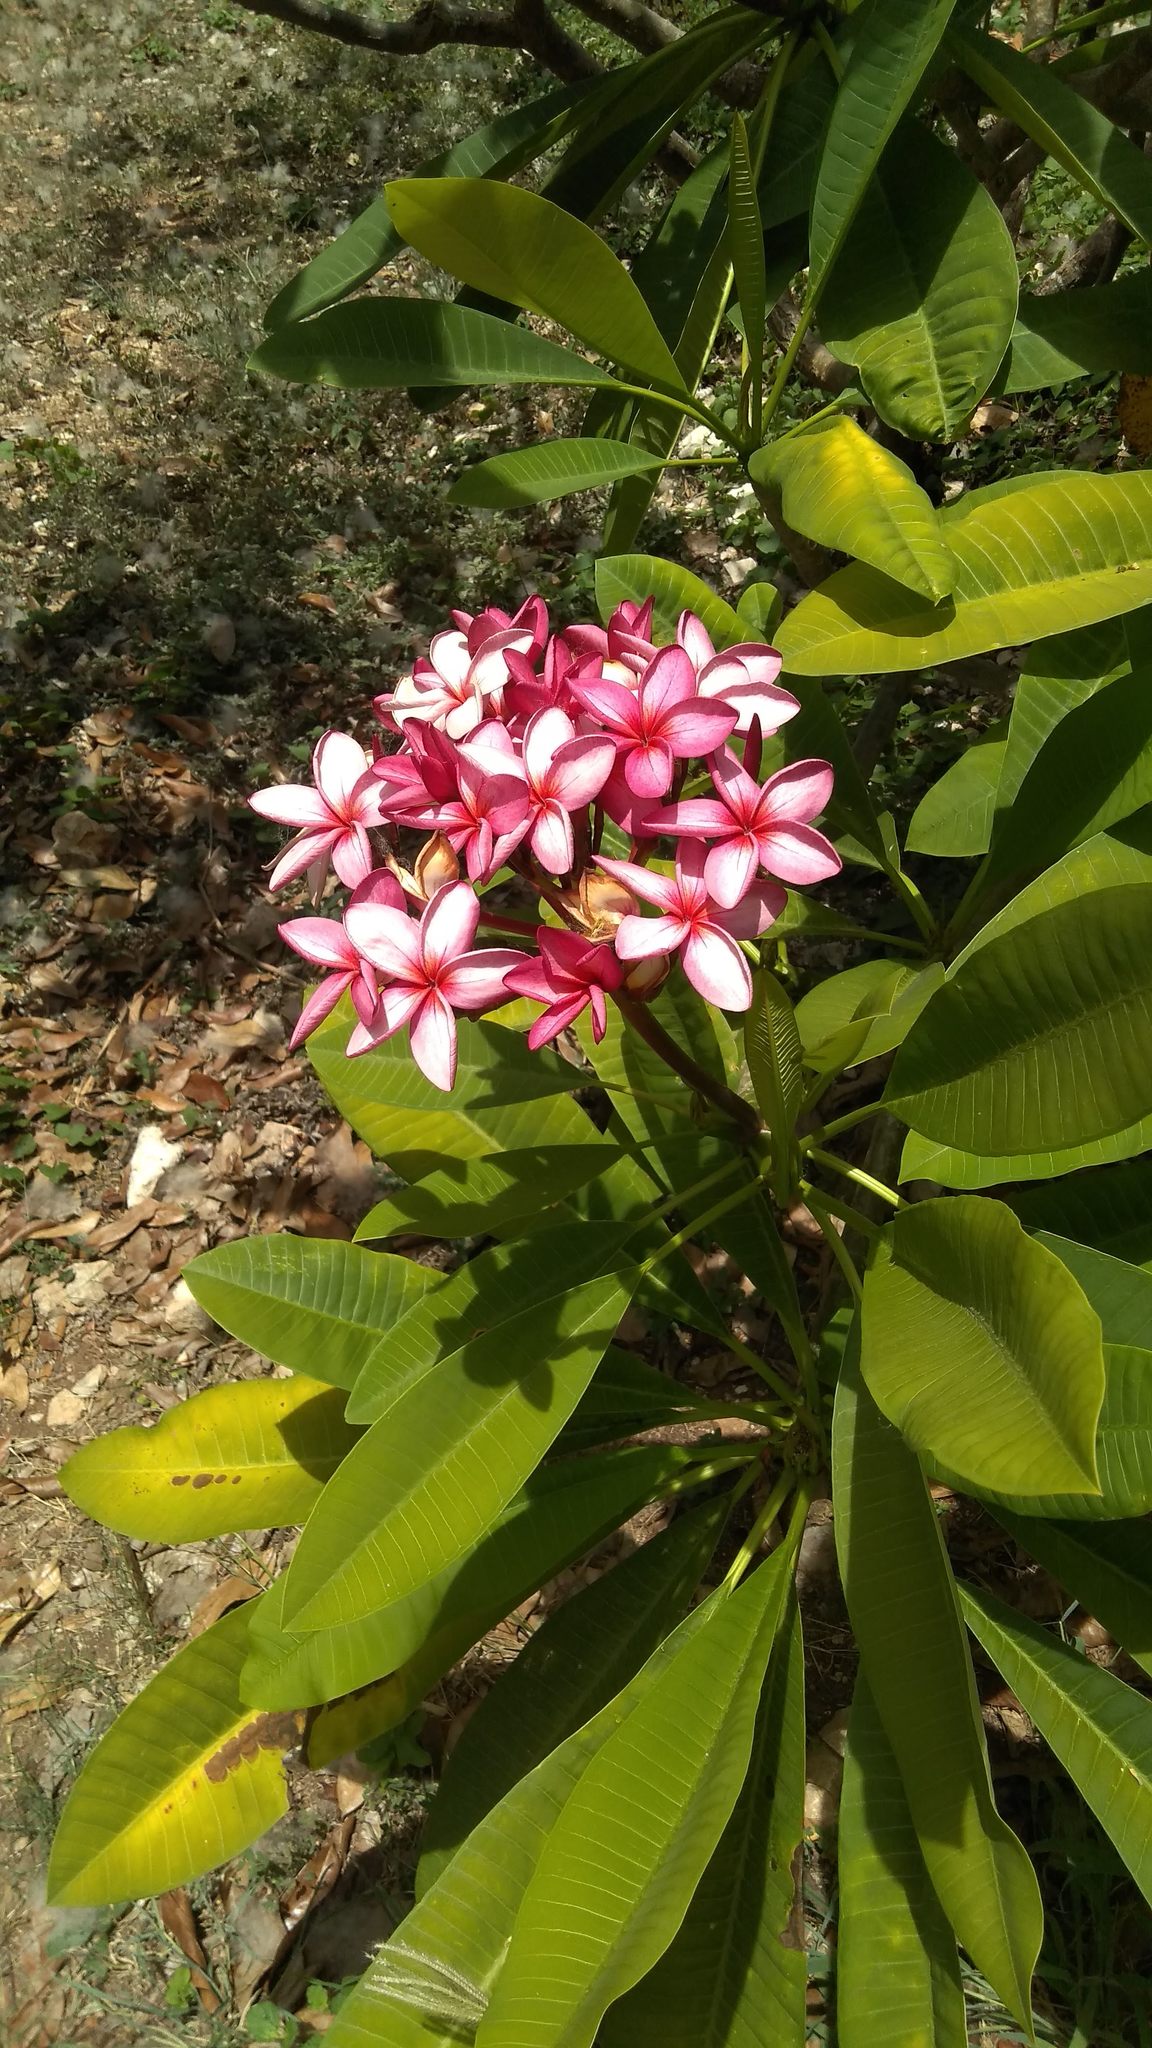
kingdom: Plantae
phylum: Tracheophyta
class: Magnoliopsida
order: Gentianales
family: Apocynaceae
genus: Plumeria
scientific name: Plumeria rubra
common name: Pagoda-tree
